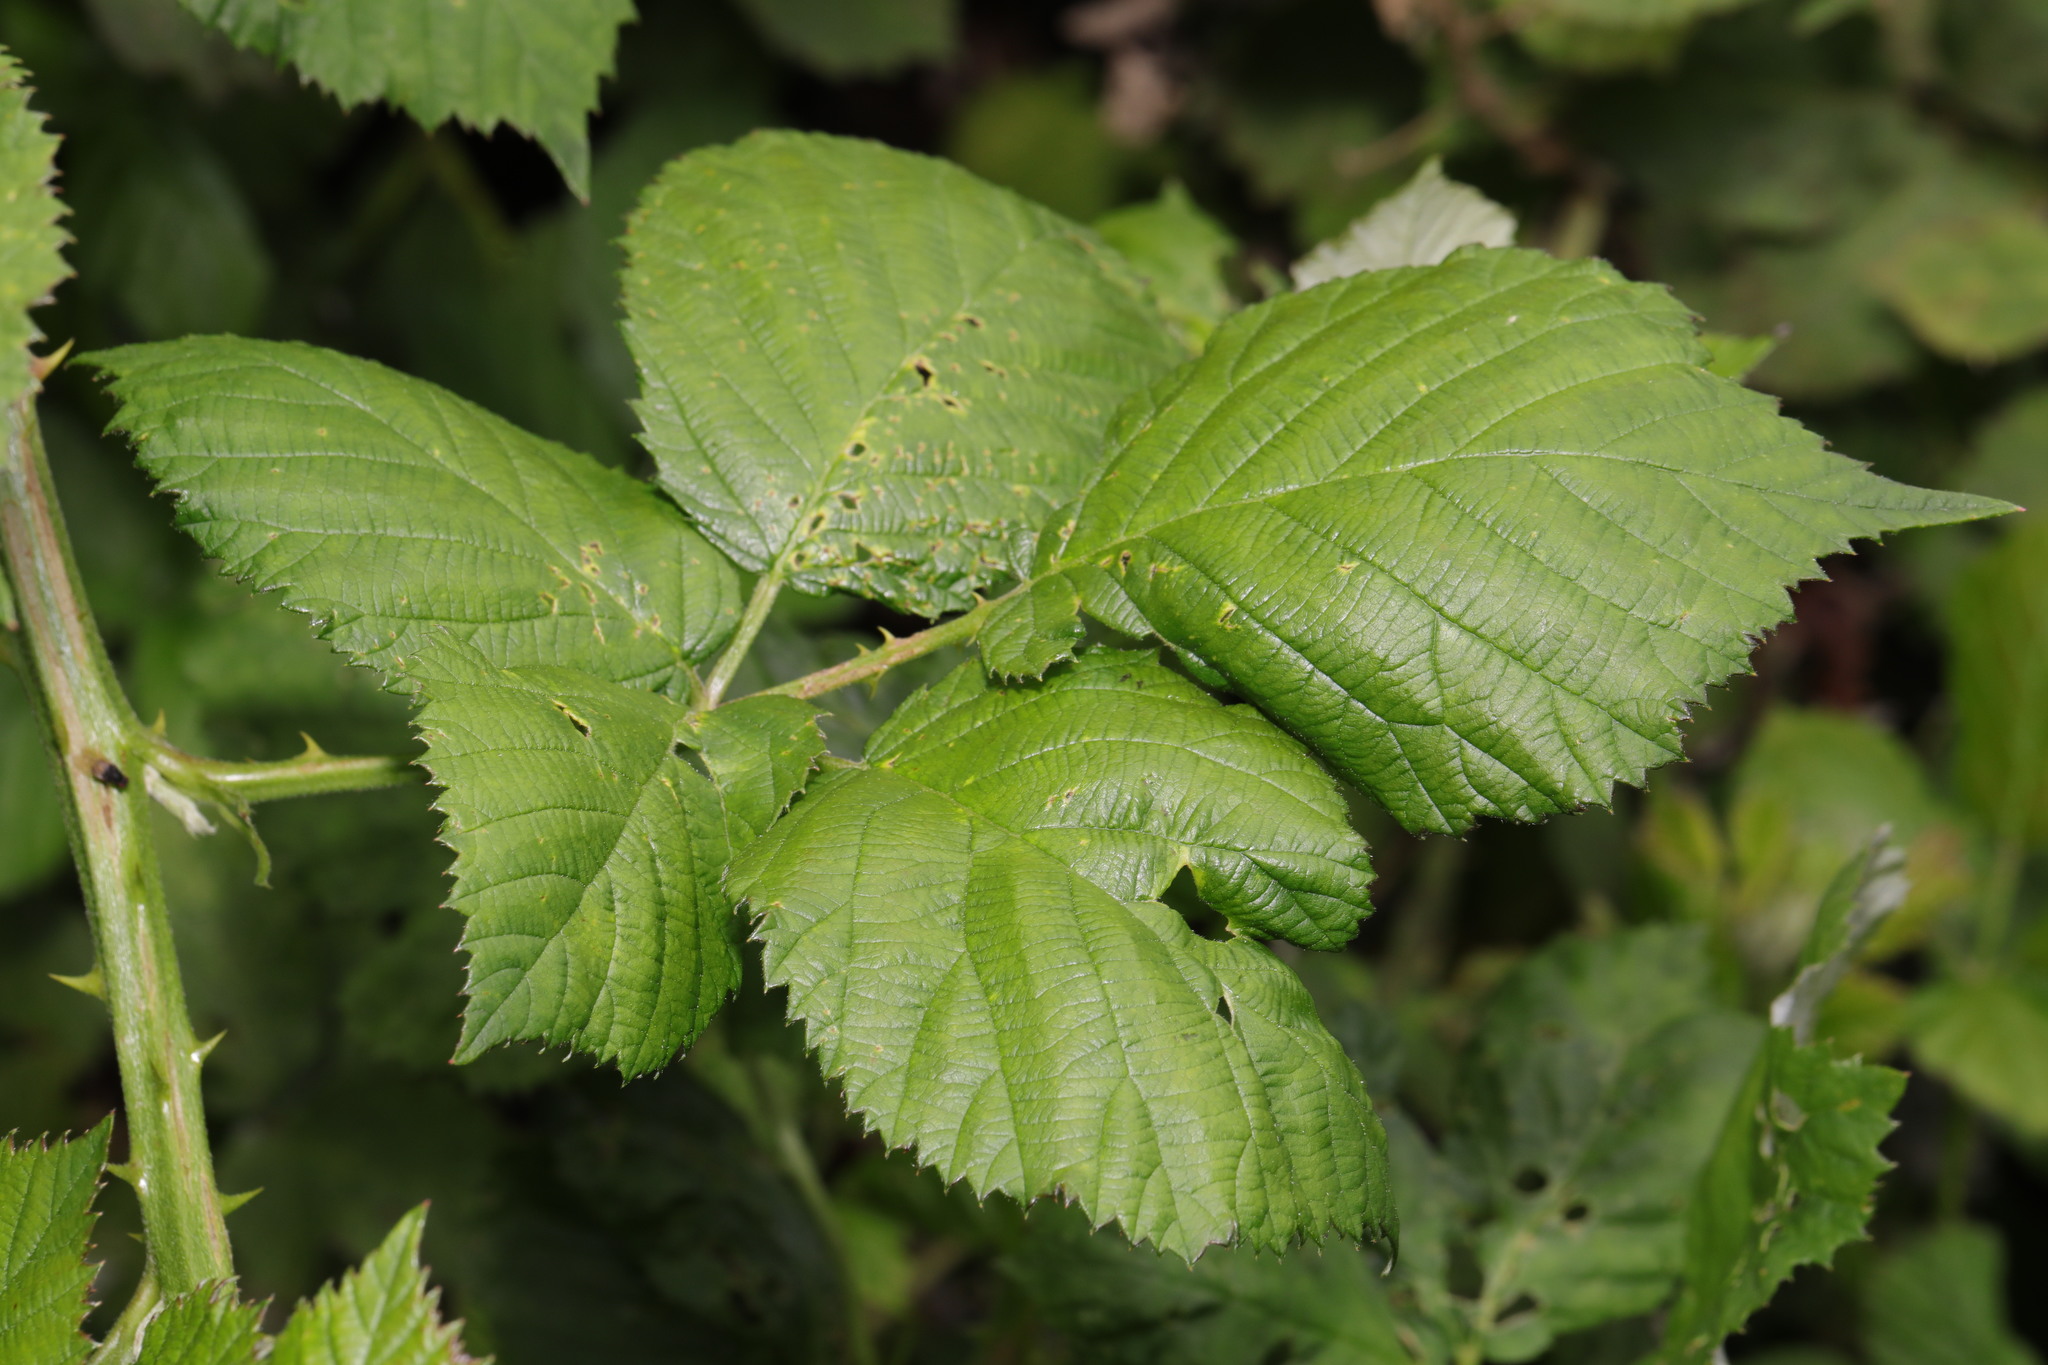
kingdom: Plantae
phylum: Tracheophyta
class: Magnoliopsida
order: Rosales
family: Rosaceae
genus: Rubus
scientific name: Rubus armeniacus
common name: Himalayan blackberry
